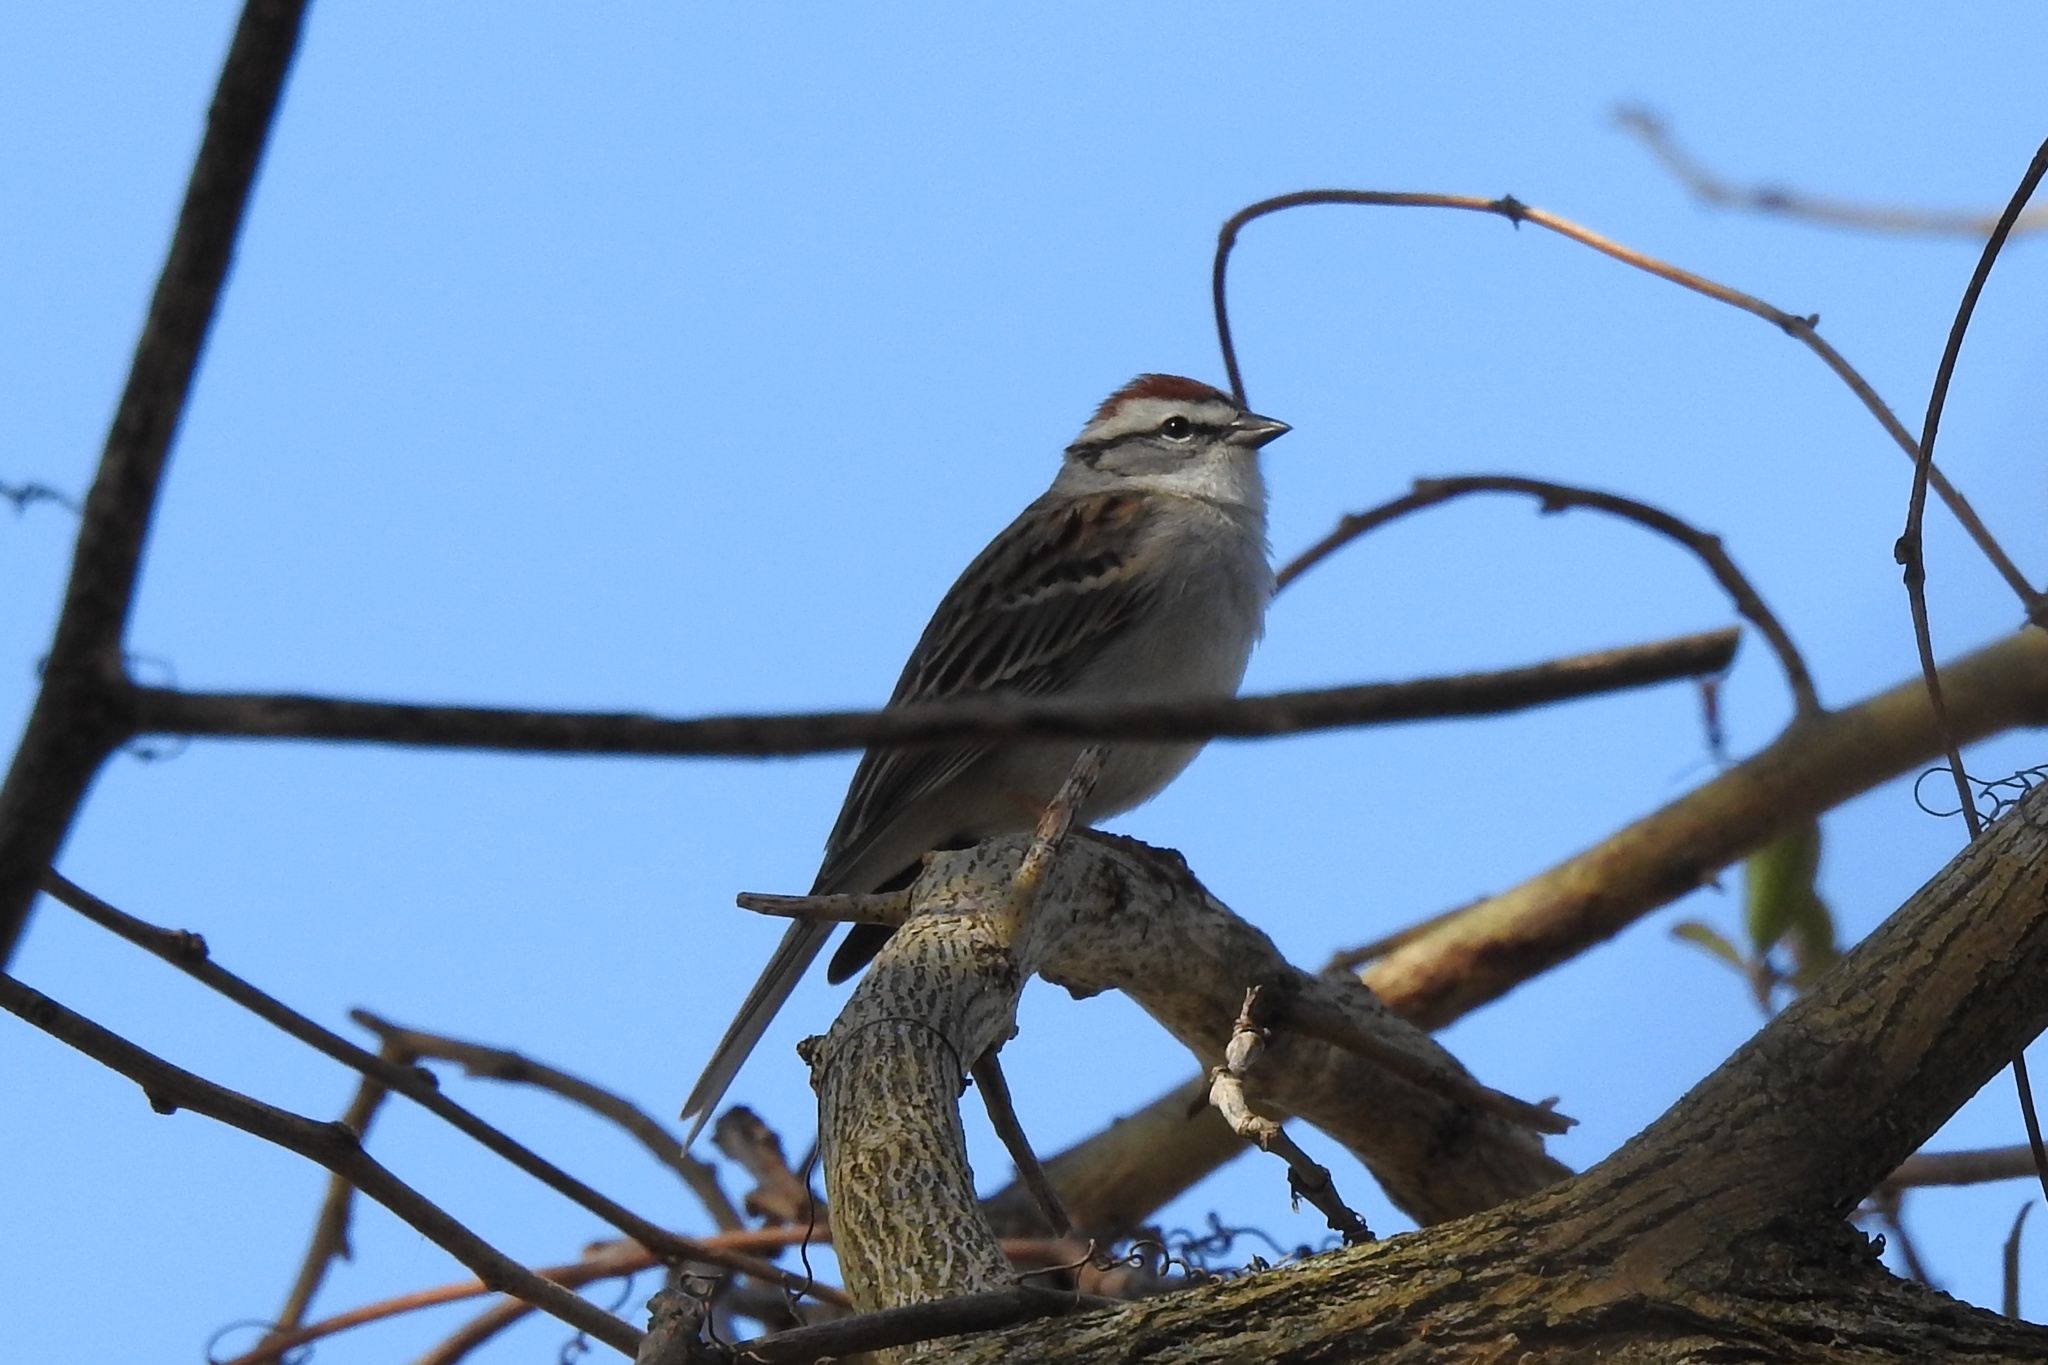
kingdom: Animalia
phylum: Chordata
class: Aves
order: Passeriformes
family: Passerellidae
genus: Spizella
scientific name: Spizella passerina
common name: Chipping sparrow
